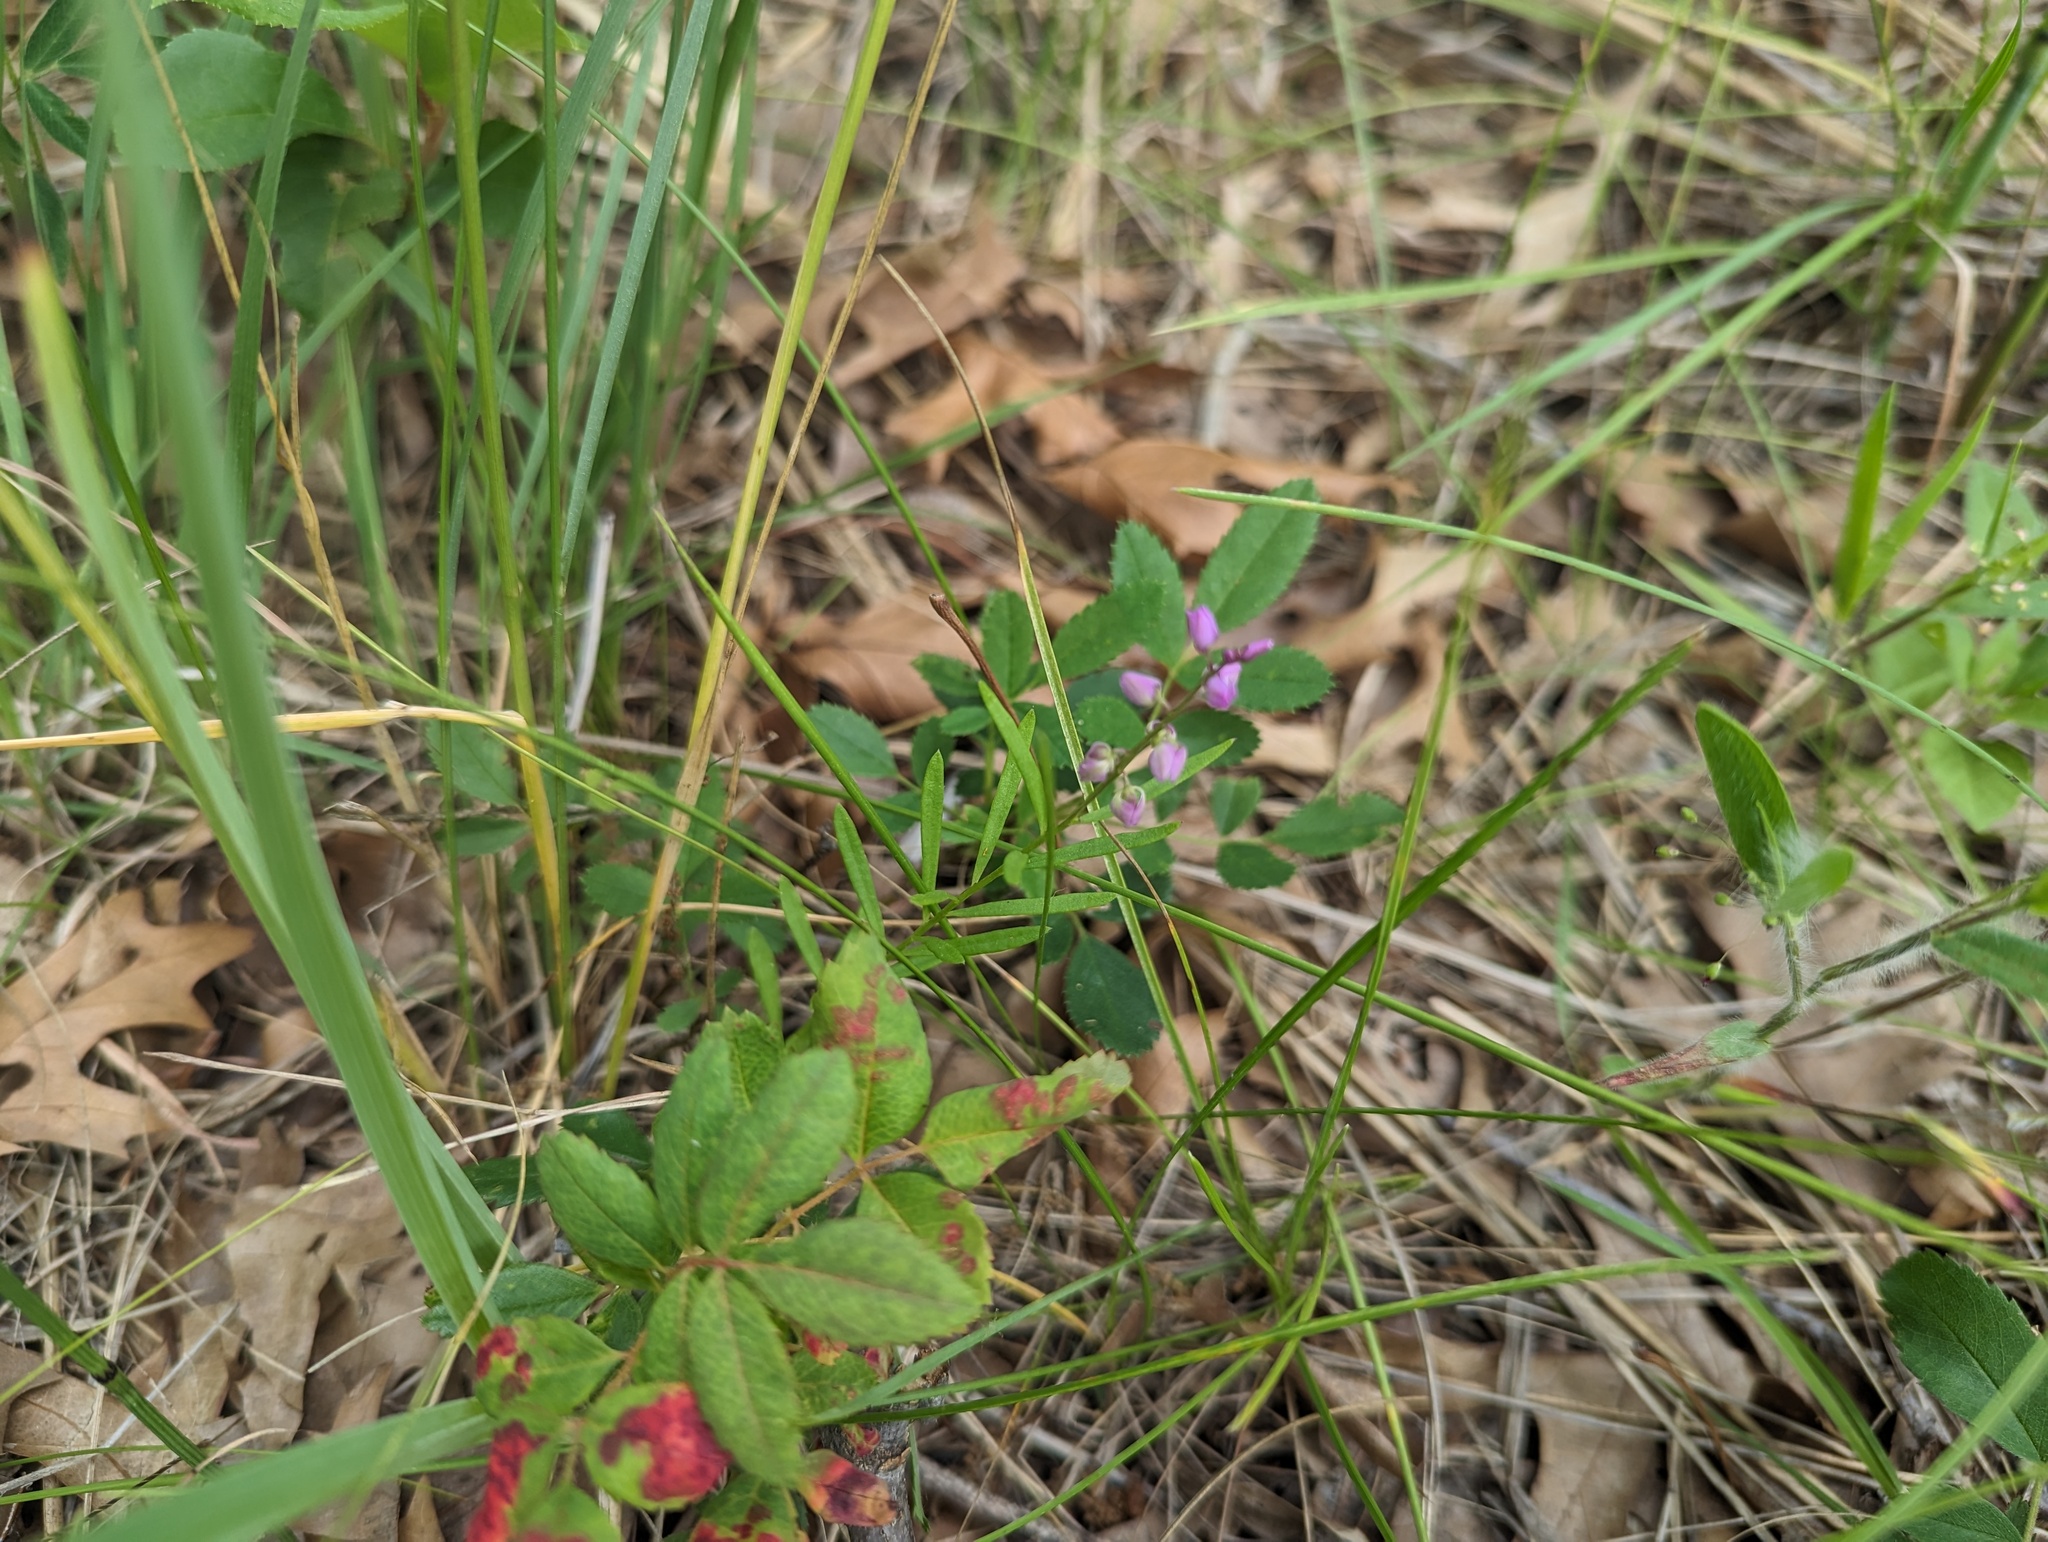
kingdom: Plantae
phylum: Tracheophyta
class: Magnoliopsida
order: Fabales
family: Polygalaceae
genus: Polygala
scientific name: Polygala polygama
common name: Bitter milkwort
